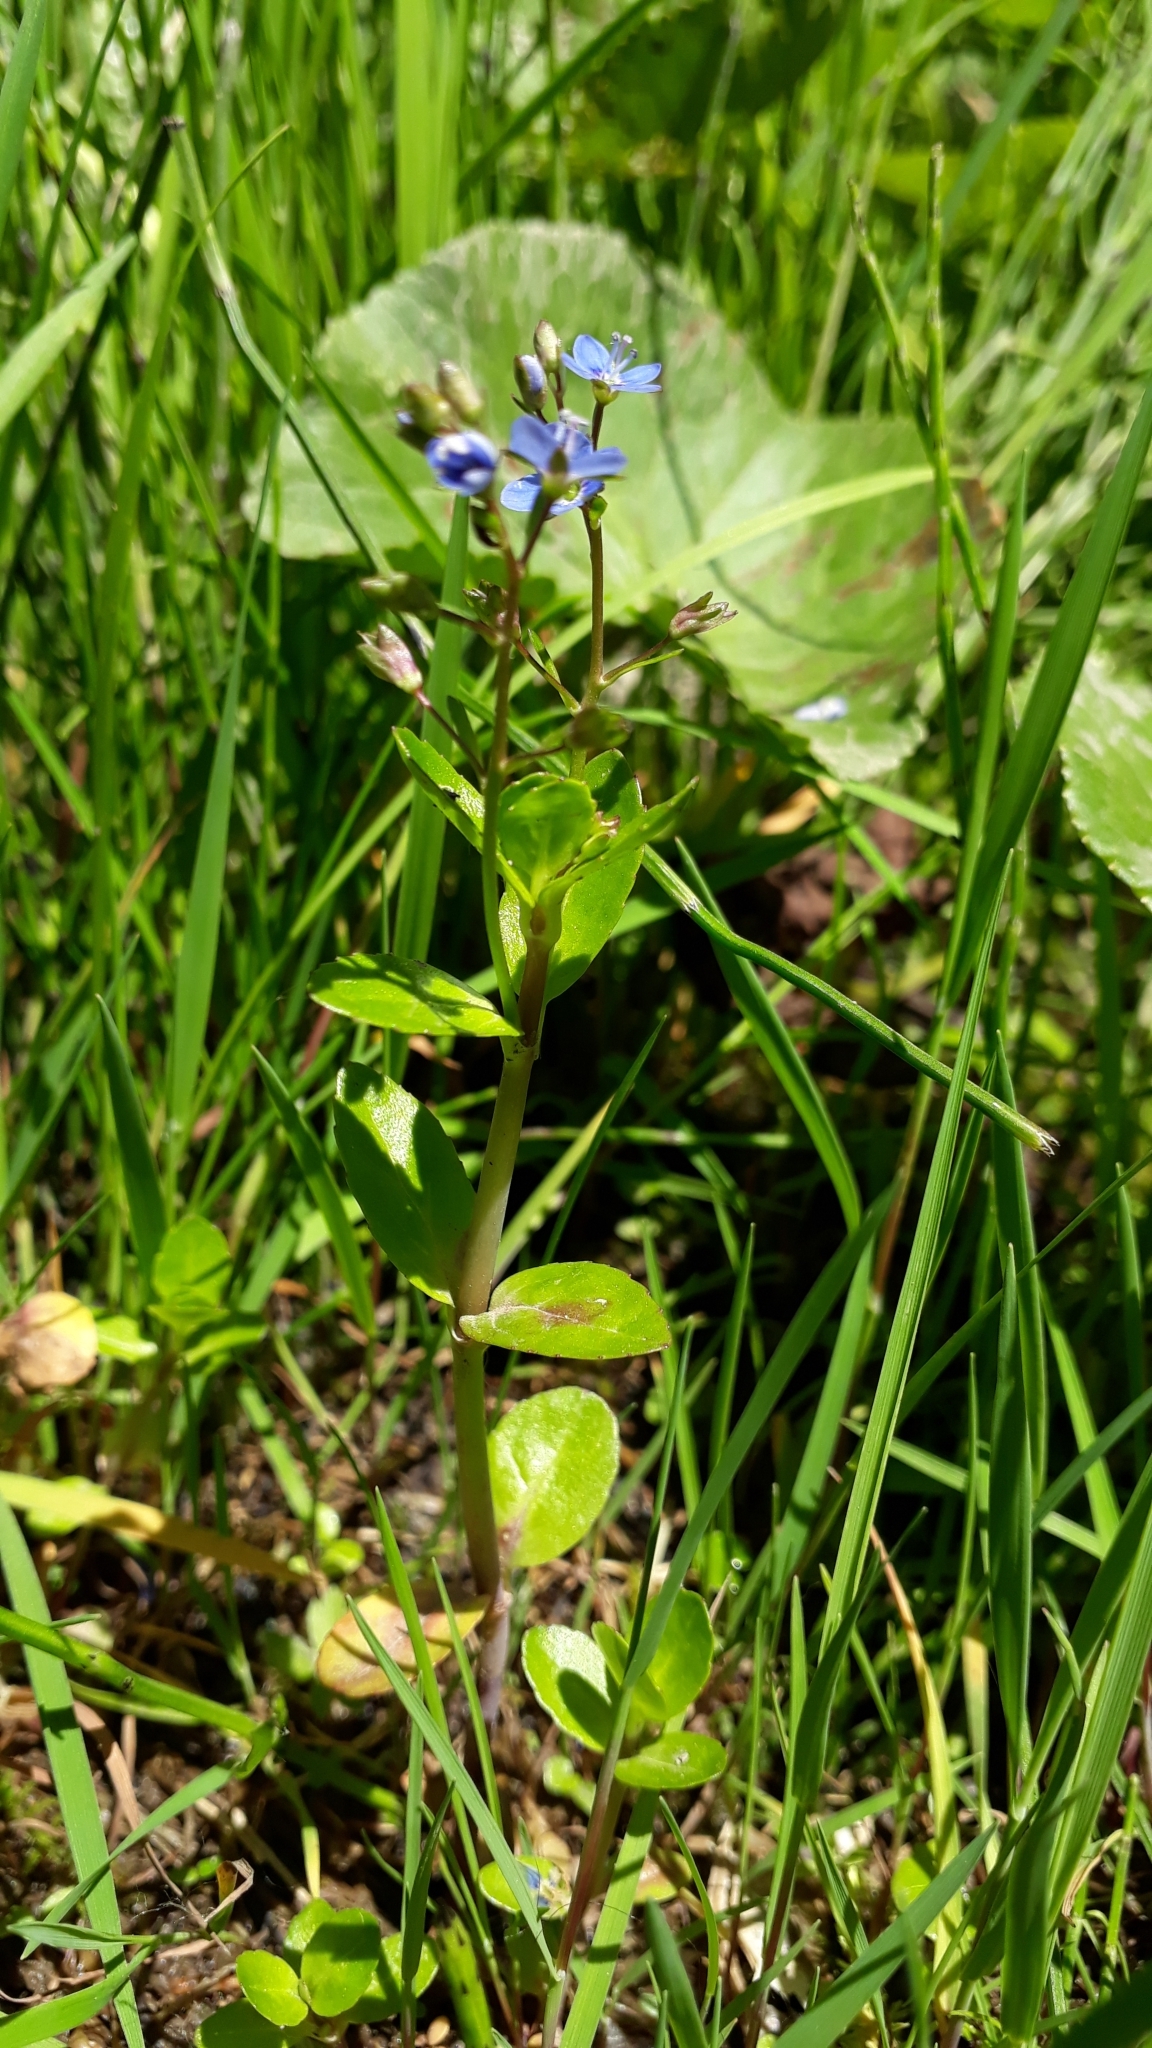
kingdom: Plantae
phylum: Tracheophyta
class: Magnoliopsida
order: Lamiales
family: Plantaginaceae
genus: Veronica
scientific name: Veronica beccabunga
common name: Brooklime
